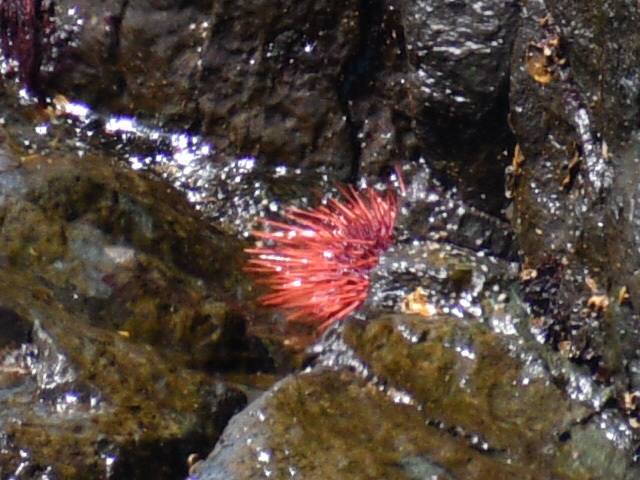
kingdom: Animalia
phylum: Echinodermata
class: Echinoidea
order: Camarodonta
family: Strongylocentrotidae
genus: Mesocentrotus
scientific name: Mesocentrotus franciscanus
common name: Red sea urchin
